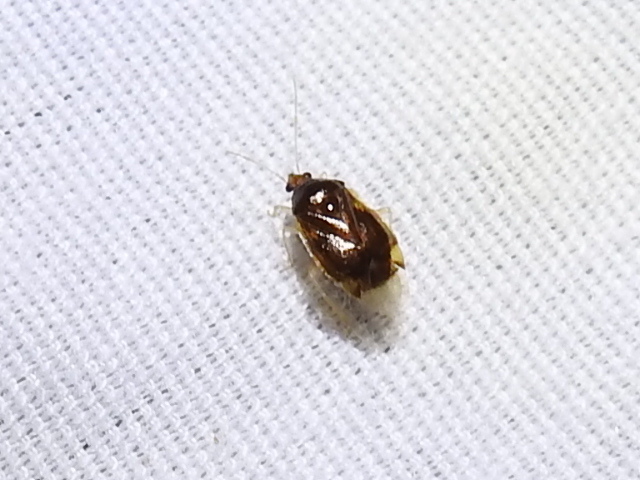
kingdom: Animalia
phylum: Arthropoda
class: Insecta
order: Hemiptera
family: Miridae
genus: Deraeocoris
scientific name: Deraeocoris davisi
